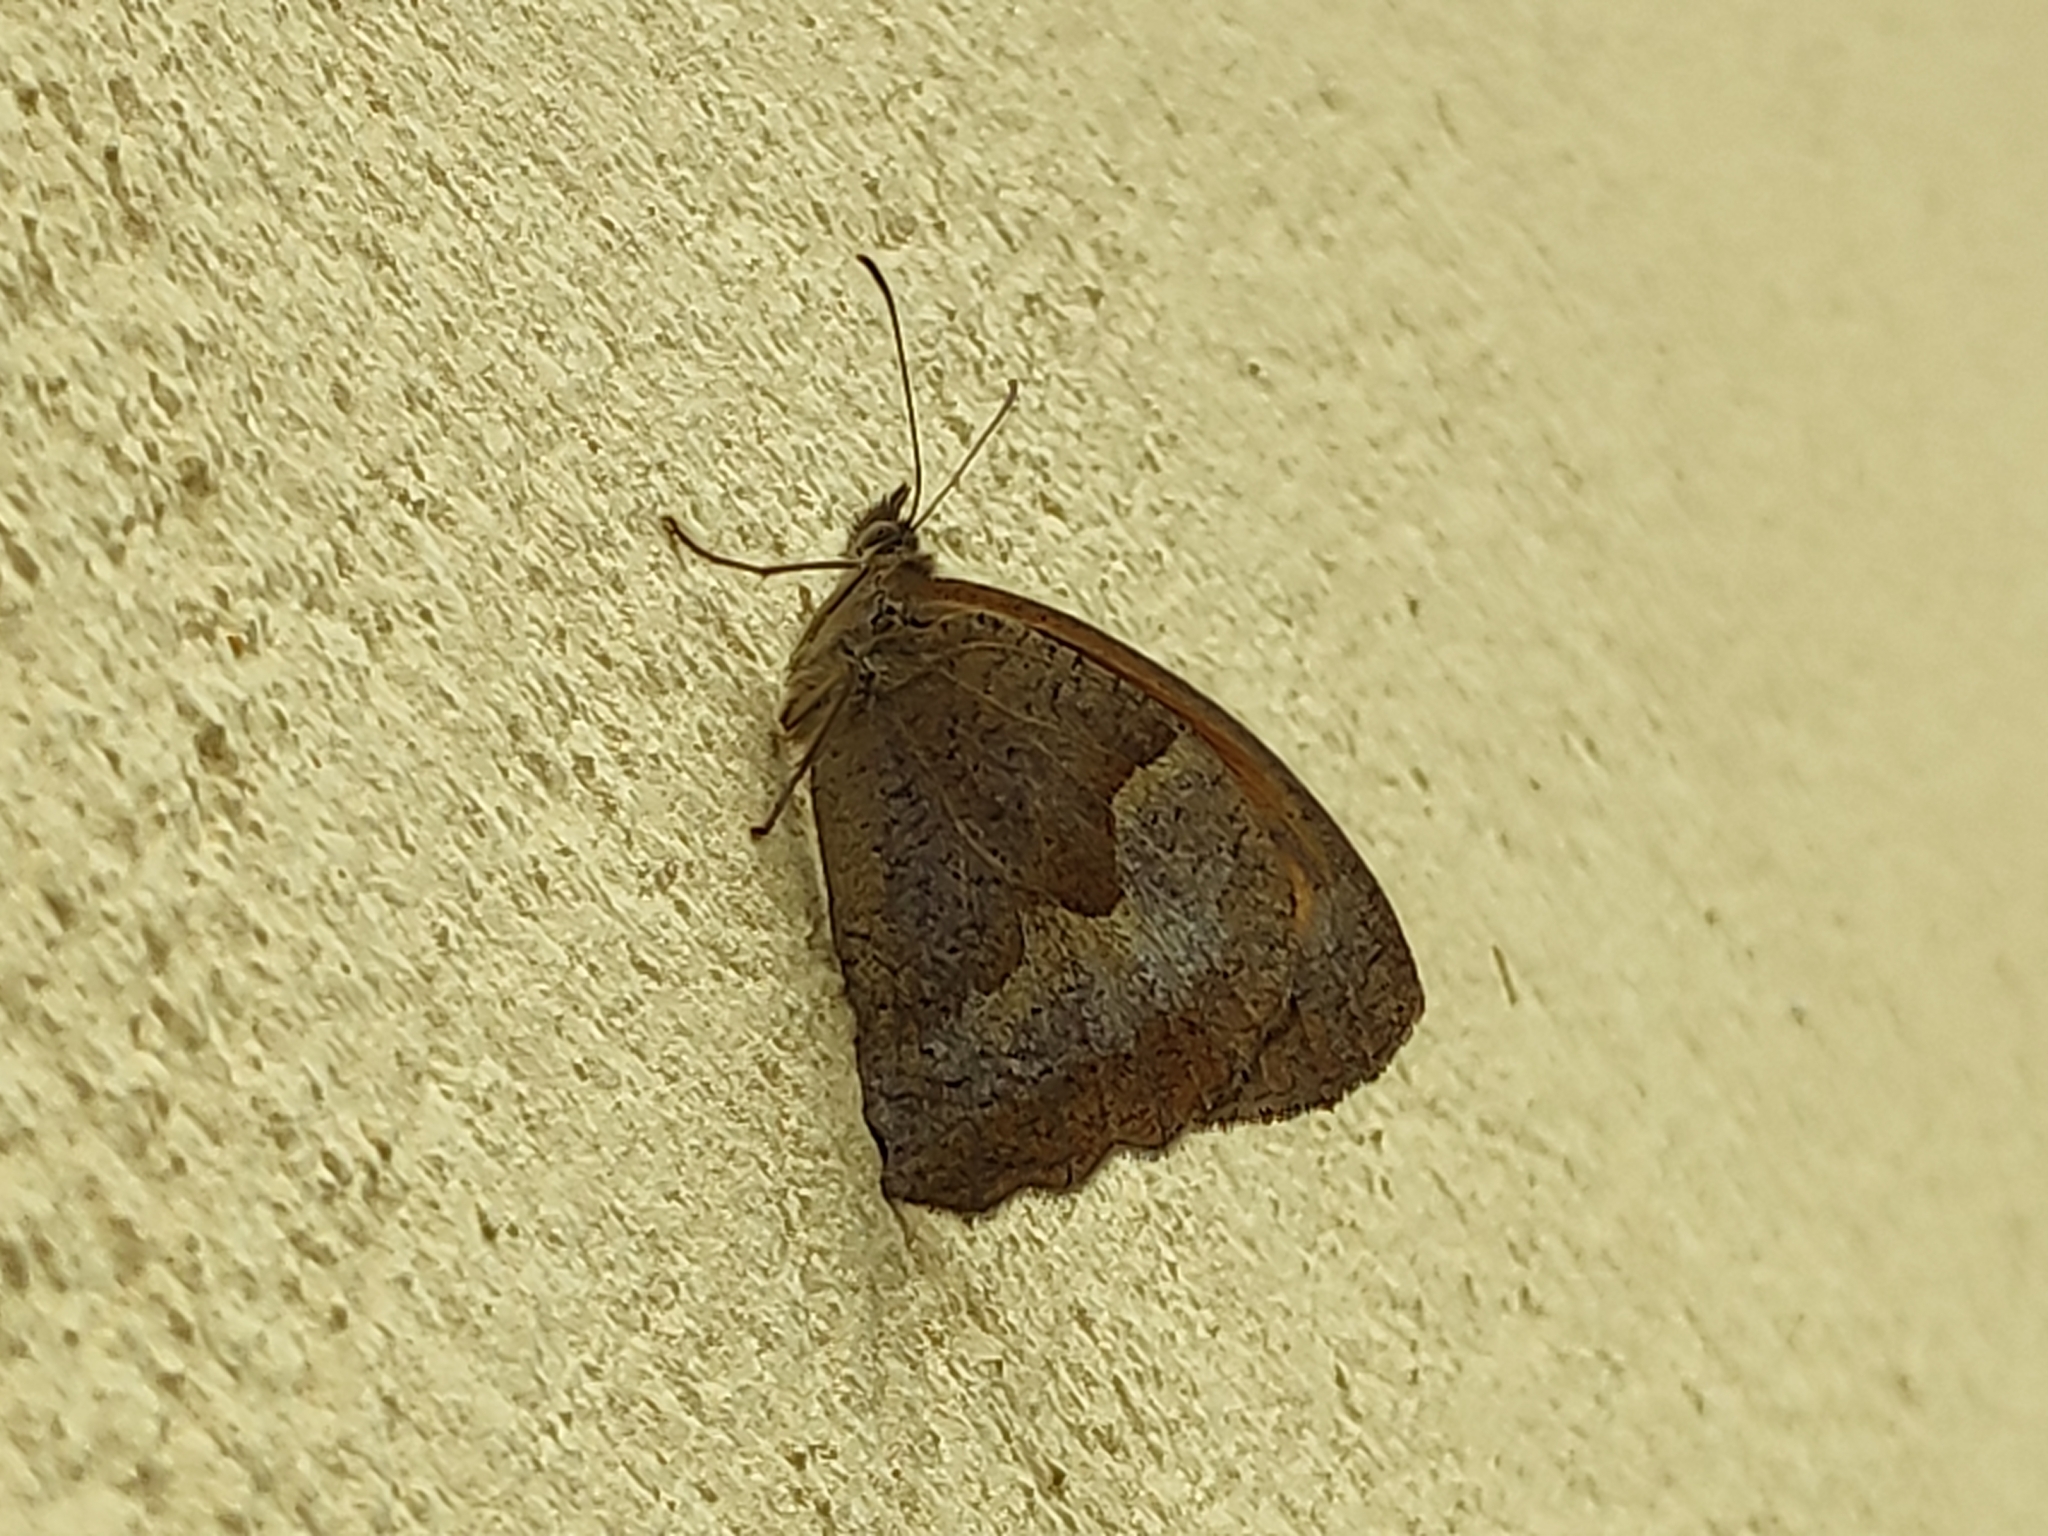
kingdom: Animalia
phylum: Arthropoda
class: Insecta
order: Lepidoptera
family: Nymphalidae
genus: Maniola
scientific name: Maniola jurtina
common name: Meadow brown
